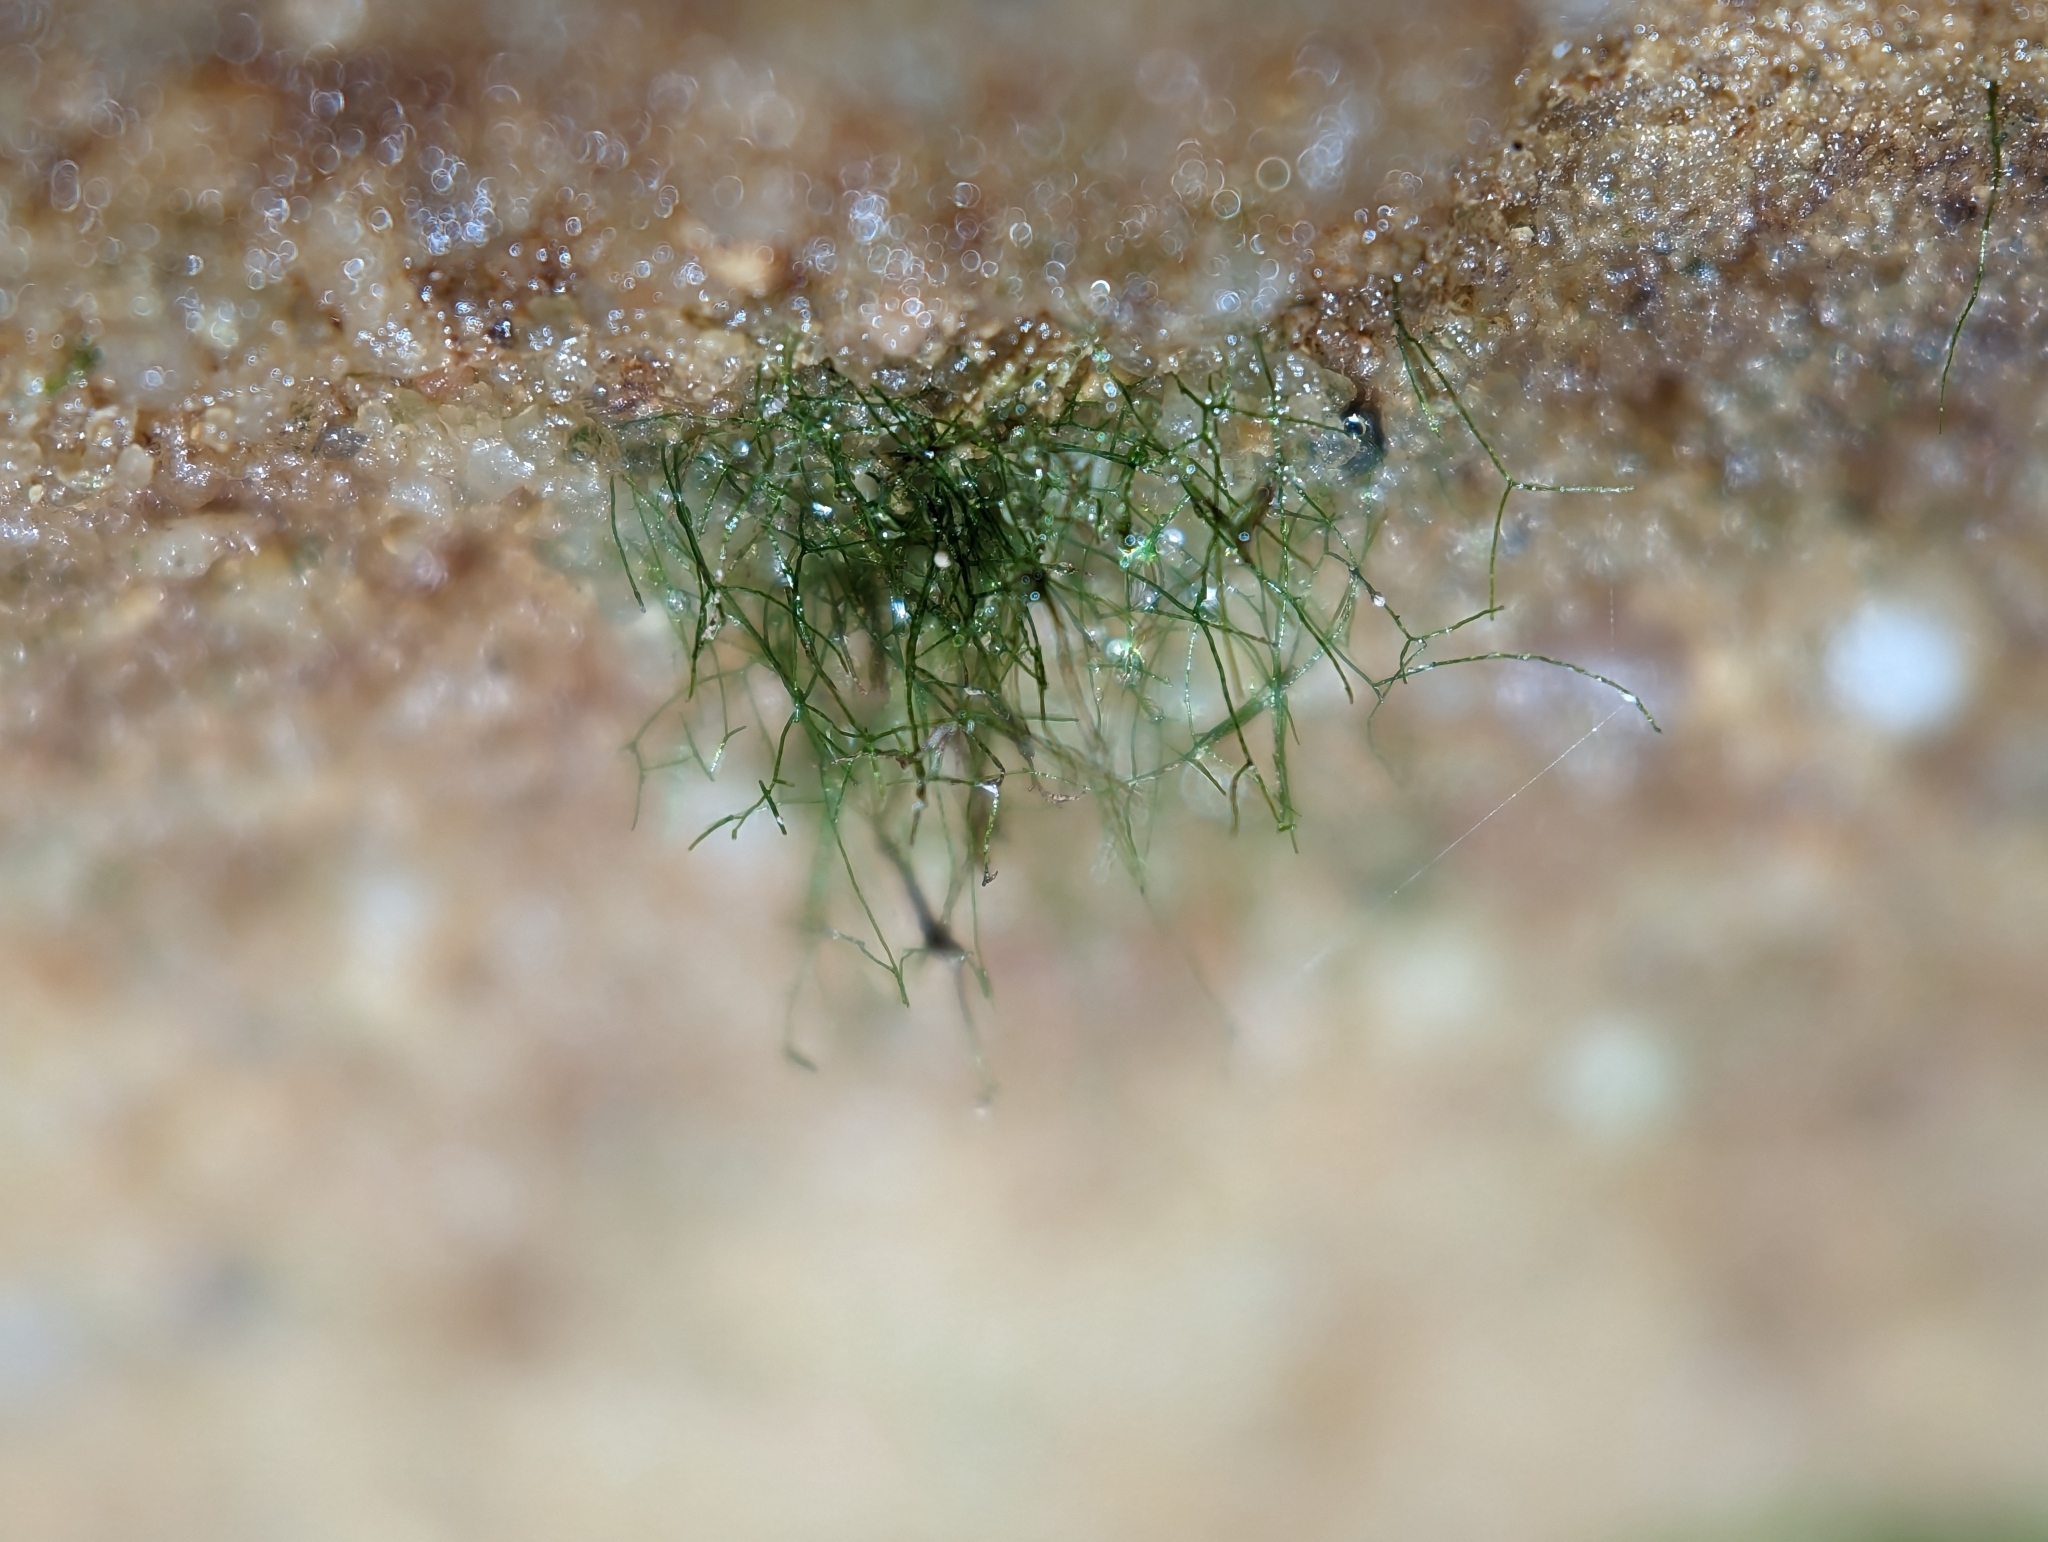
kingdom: Plantae
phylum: Tracheophyta
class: Polypodiopsida
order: Hymenophyllales
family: Hymenophyllaceae
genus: Crepidomanes
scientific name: Crepidomanes intricatum
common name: Weft fern
